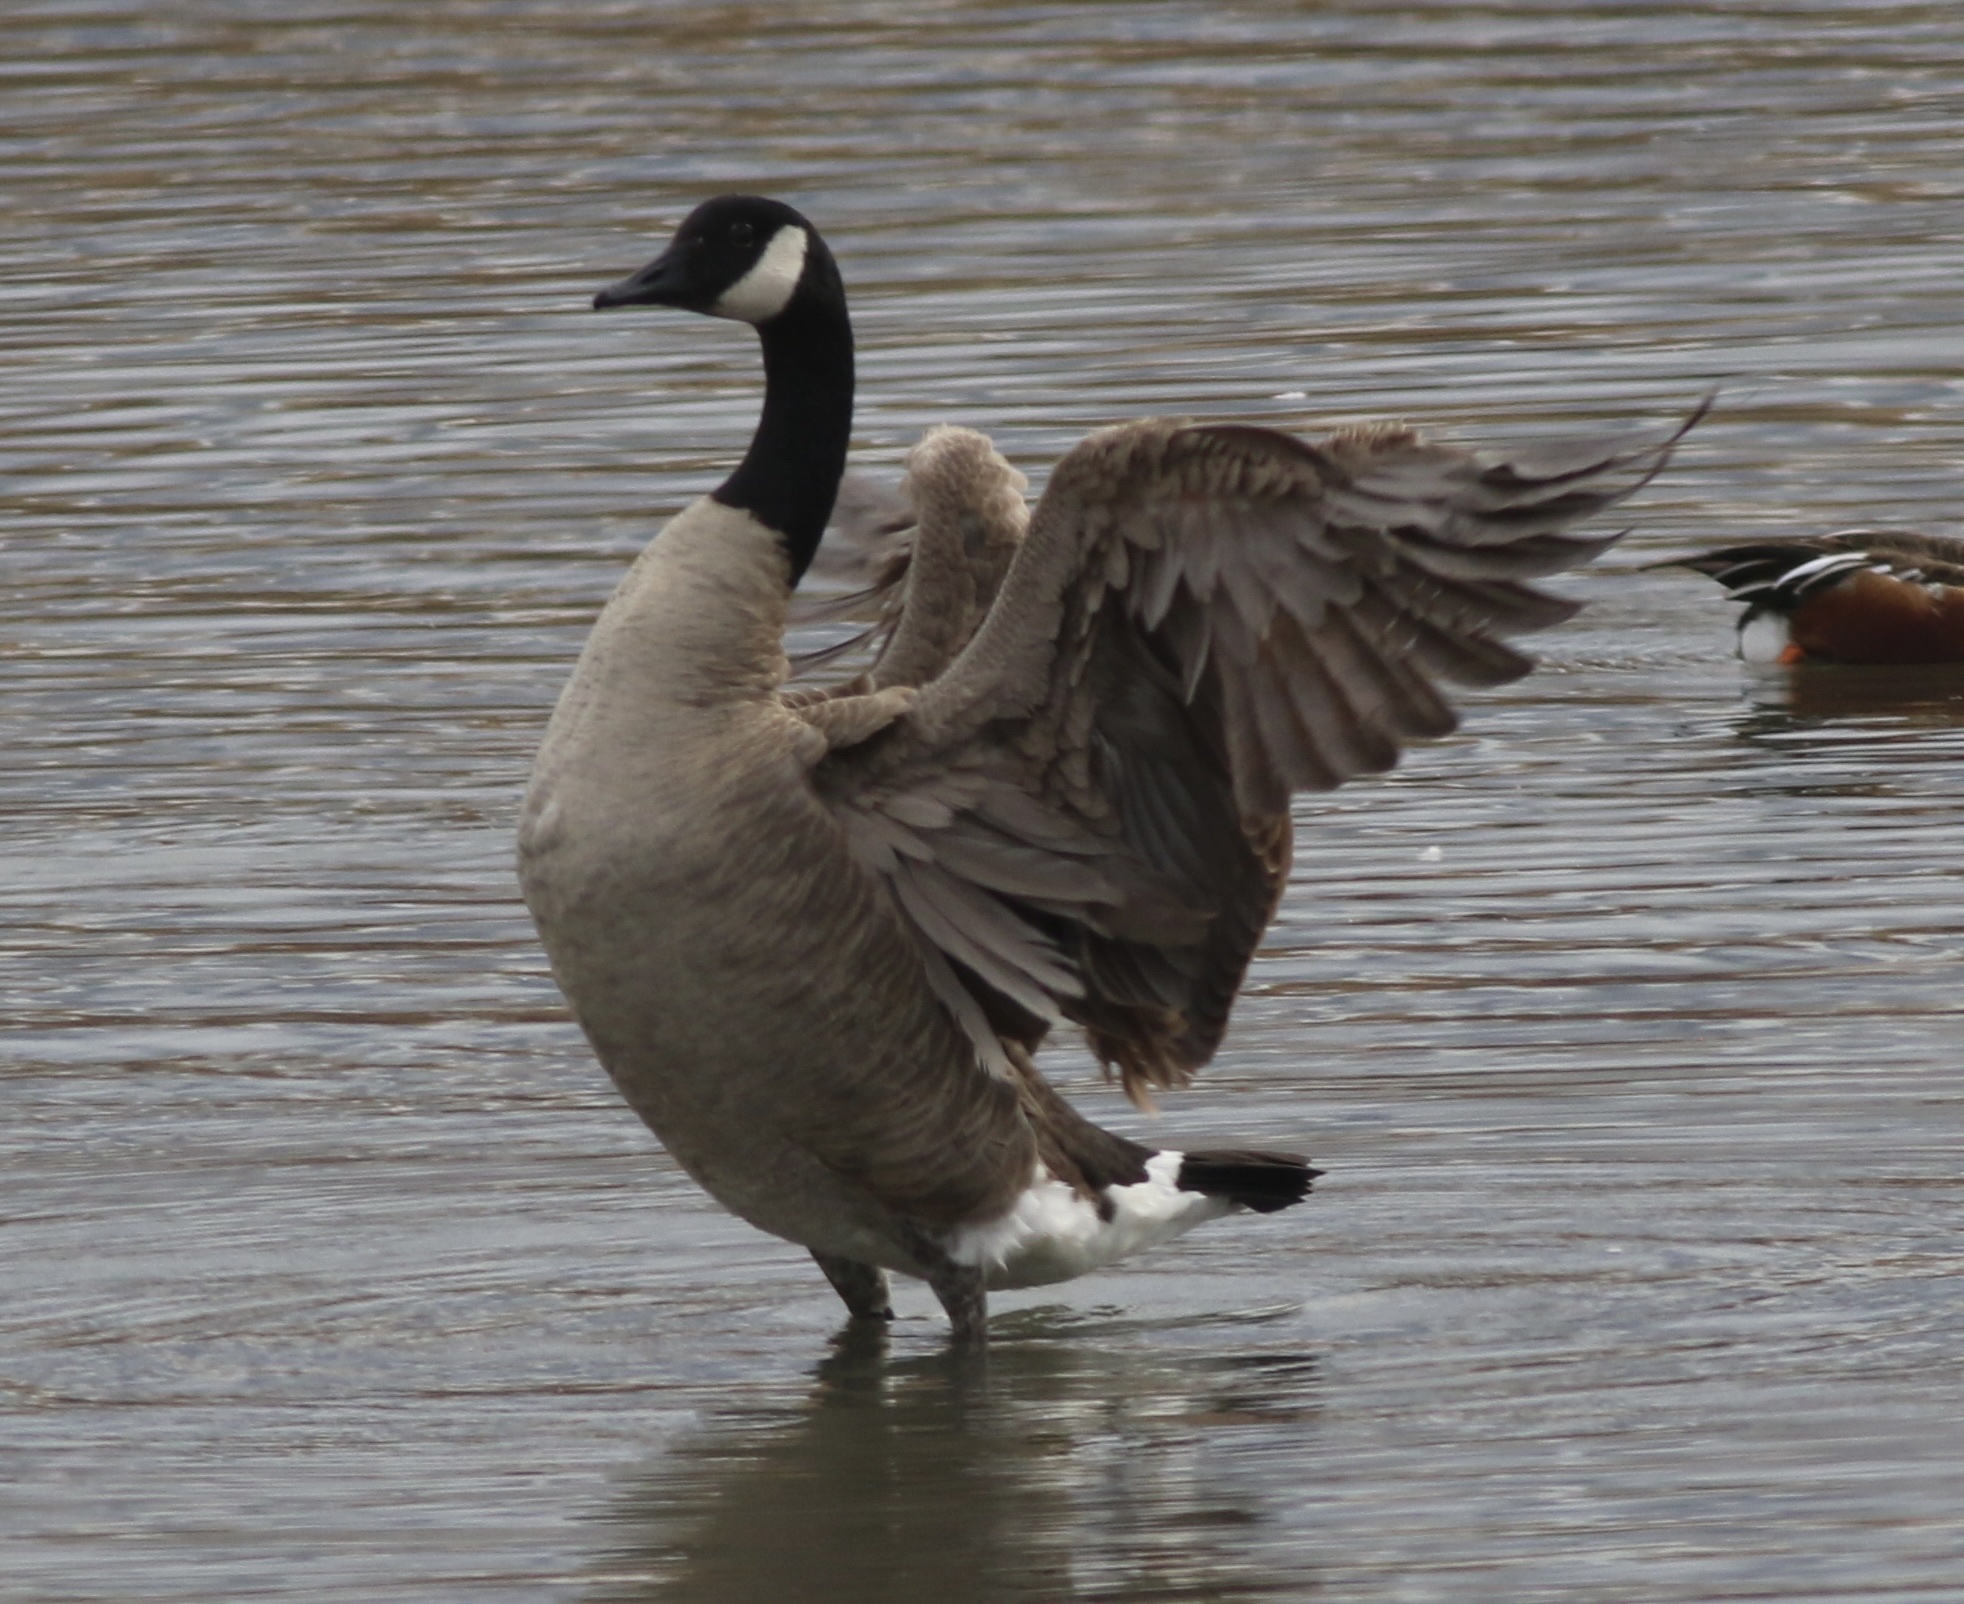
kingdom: Animalia
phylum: Chordata
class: Aves
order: Anseriformes
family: Anatidae
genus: Branta
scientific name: Branta canadensis
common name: Canada goose
